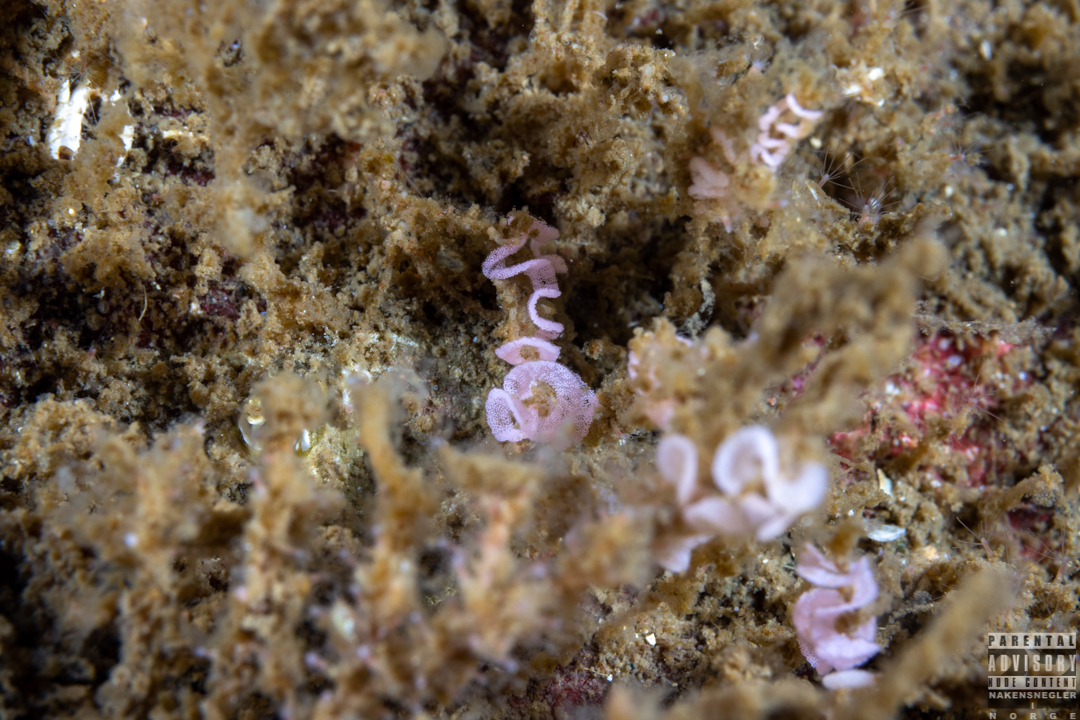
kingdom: Animalia
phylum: Mollusca
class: Gastropoda
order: Nudibranchia
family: Dotidae
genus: Doto
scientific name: Doto fragilis
